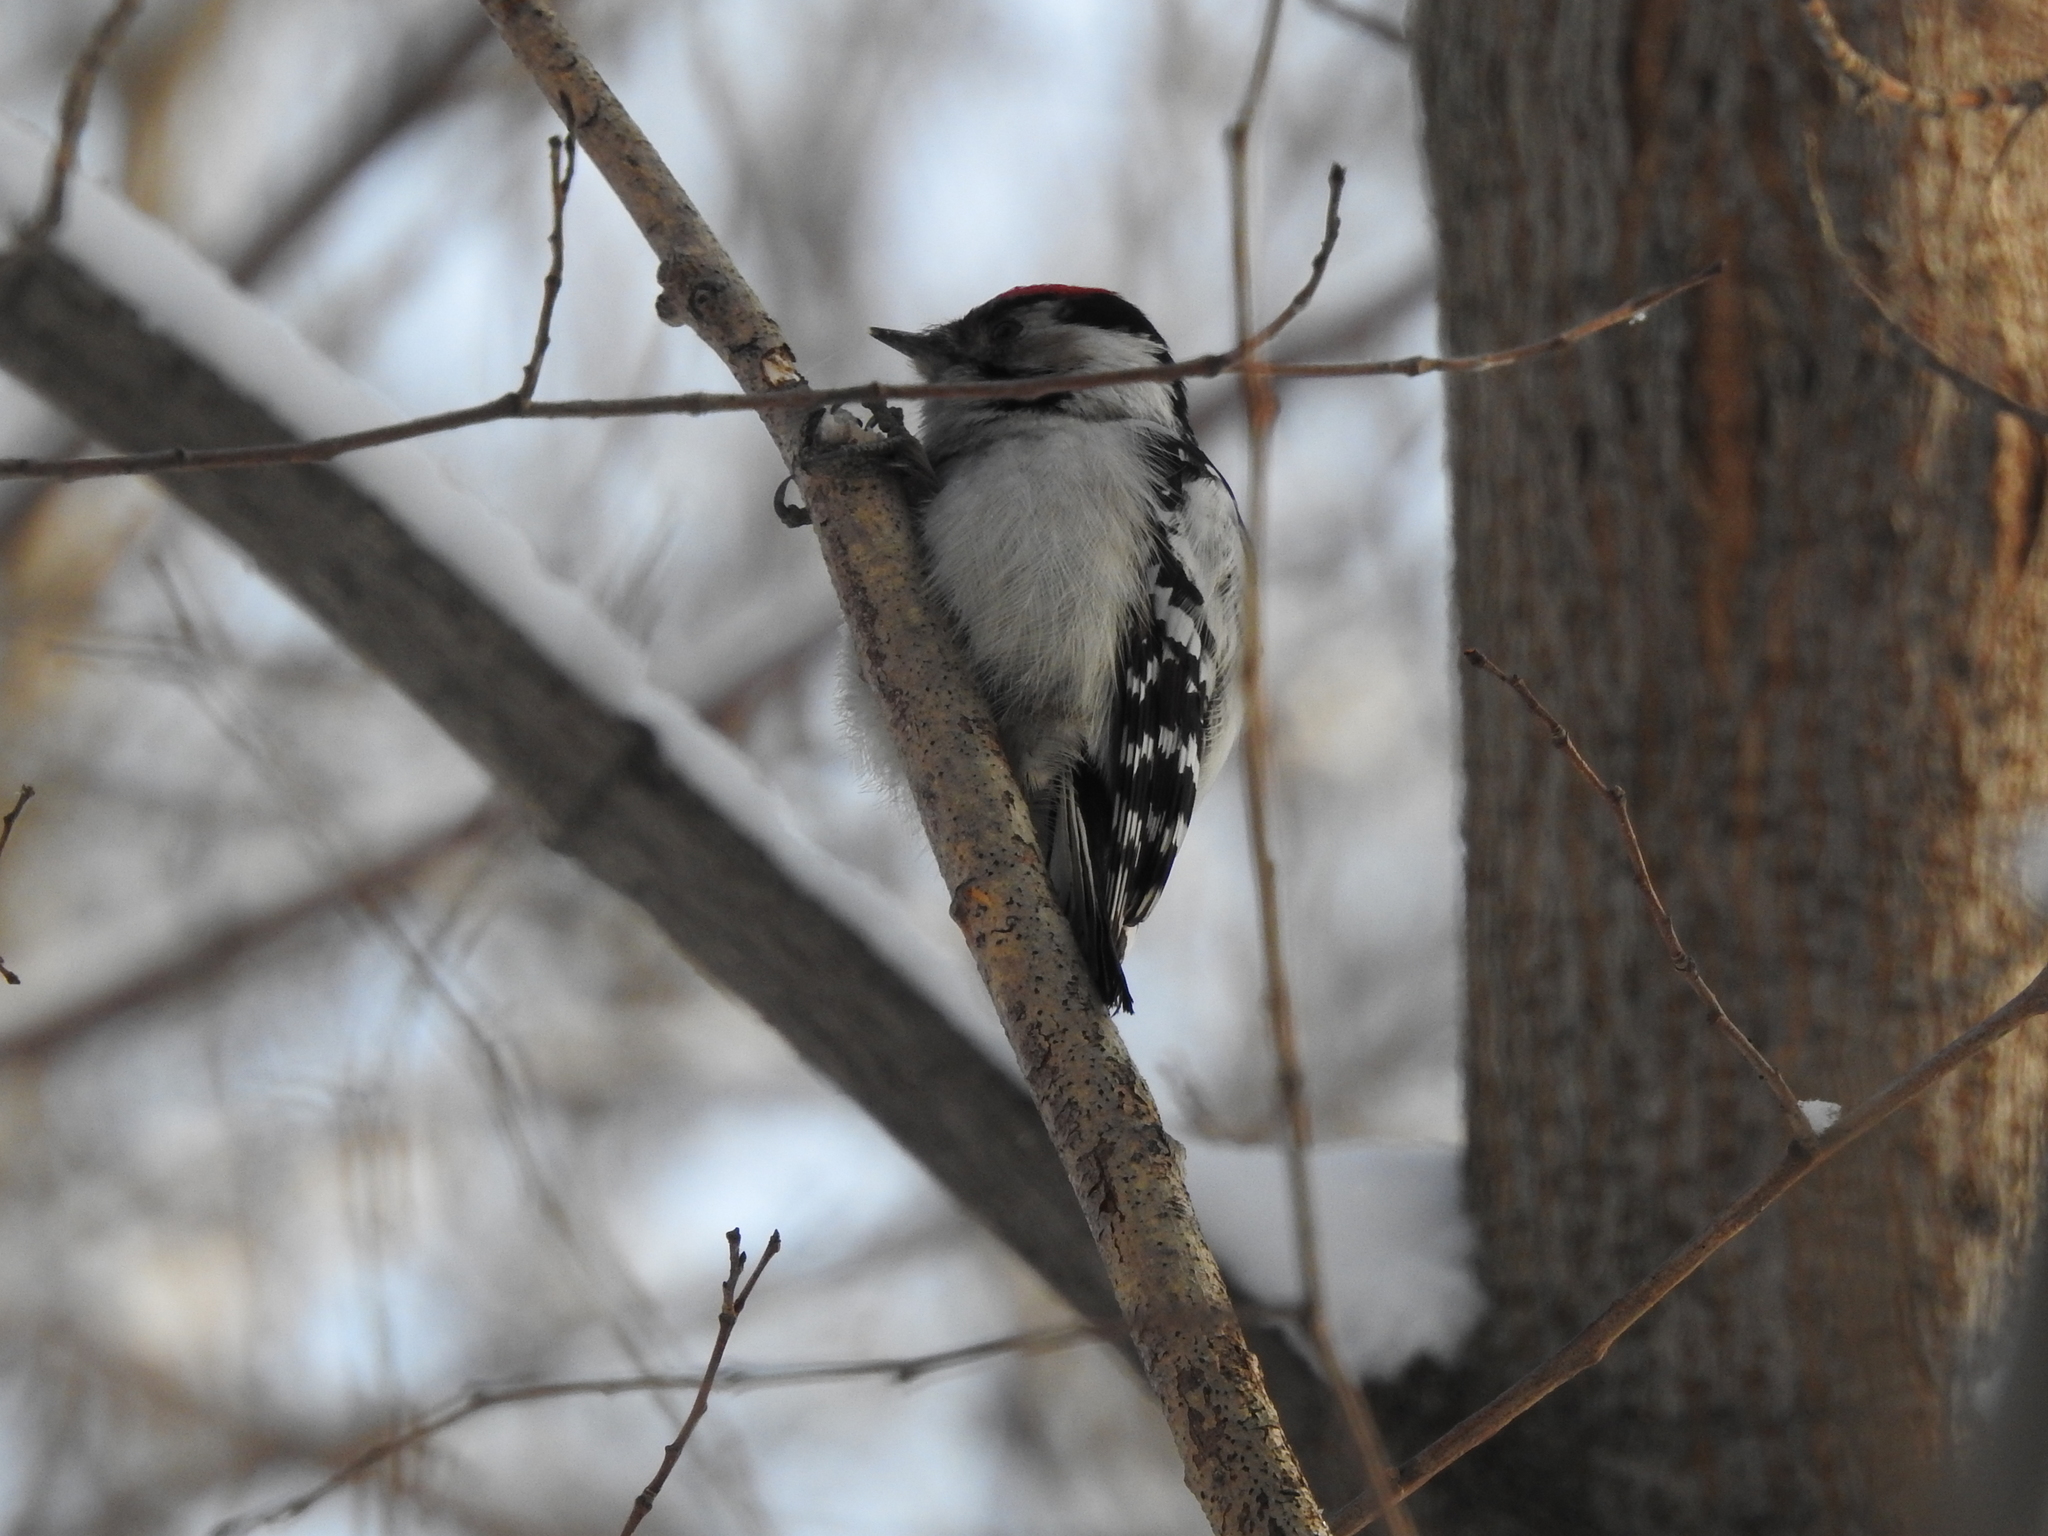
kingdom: Animalia
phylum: Chordata
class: Aves
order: Piciformes
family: Picidae
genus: Dryobates
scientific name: Dryobates minor
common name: Lesser spotted woodpecker
